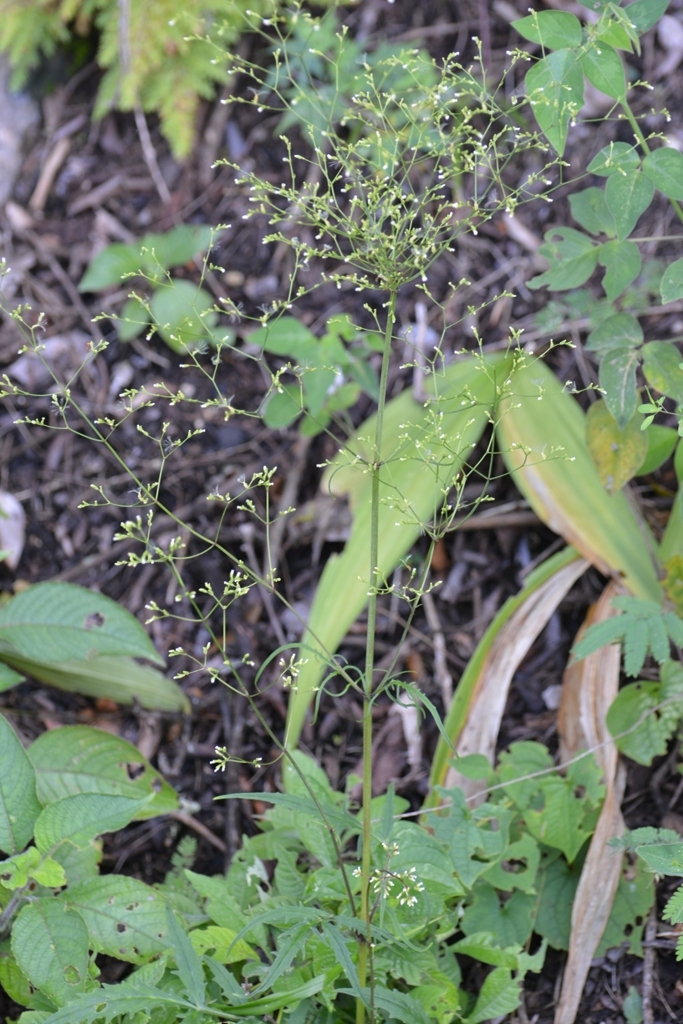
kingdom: Plantae
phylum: Tracheophyta
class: Magnoliopsida
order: Dipsacales
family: Caprifoliaceae
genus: Valeriana
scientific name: Valeriana sorbifolia
